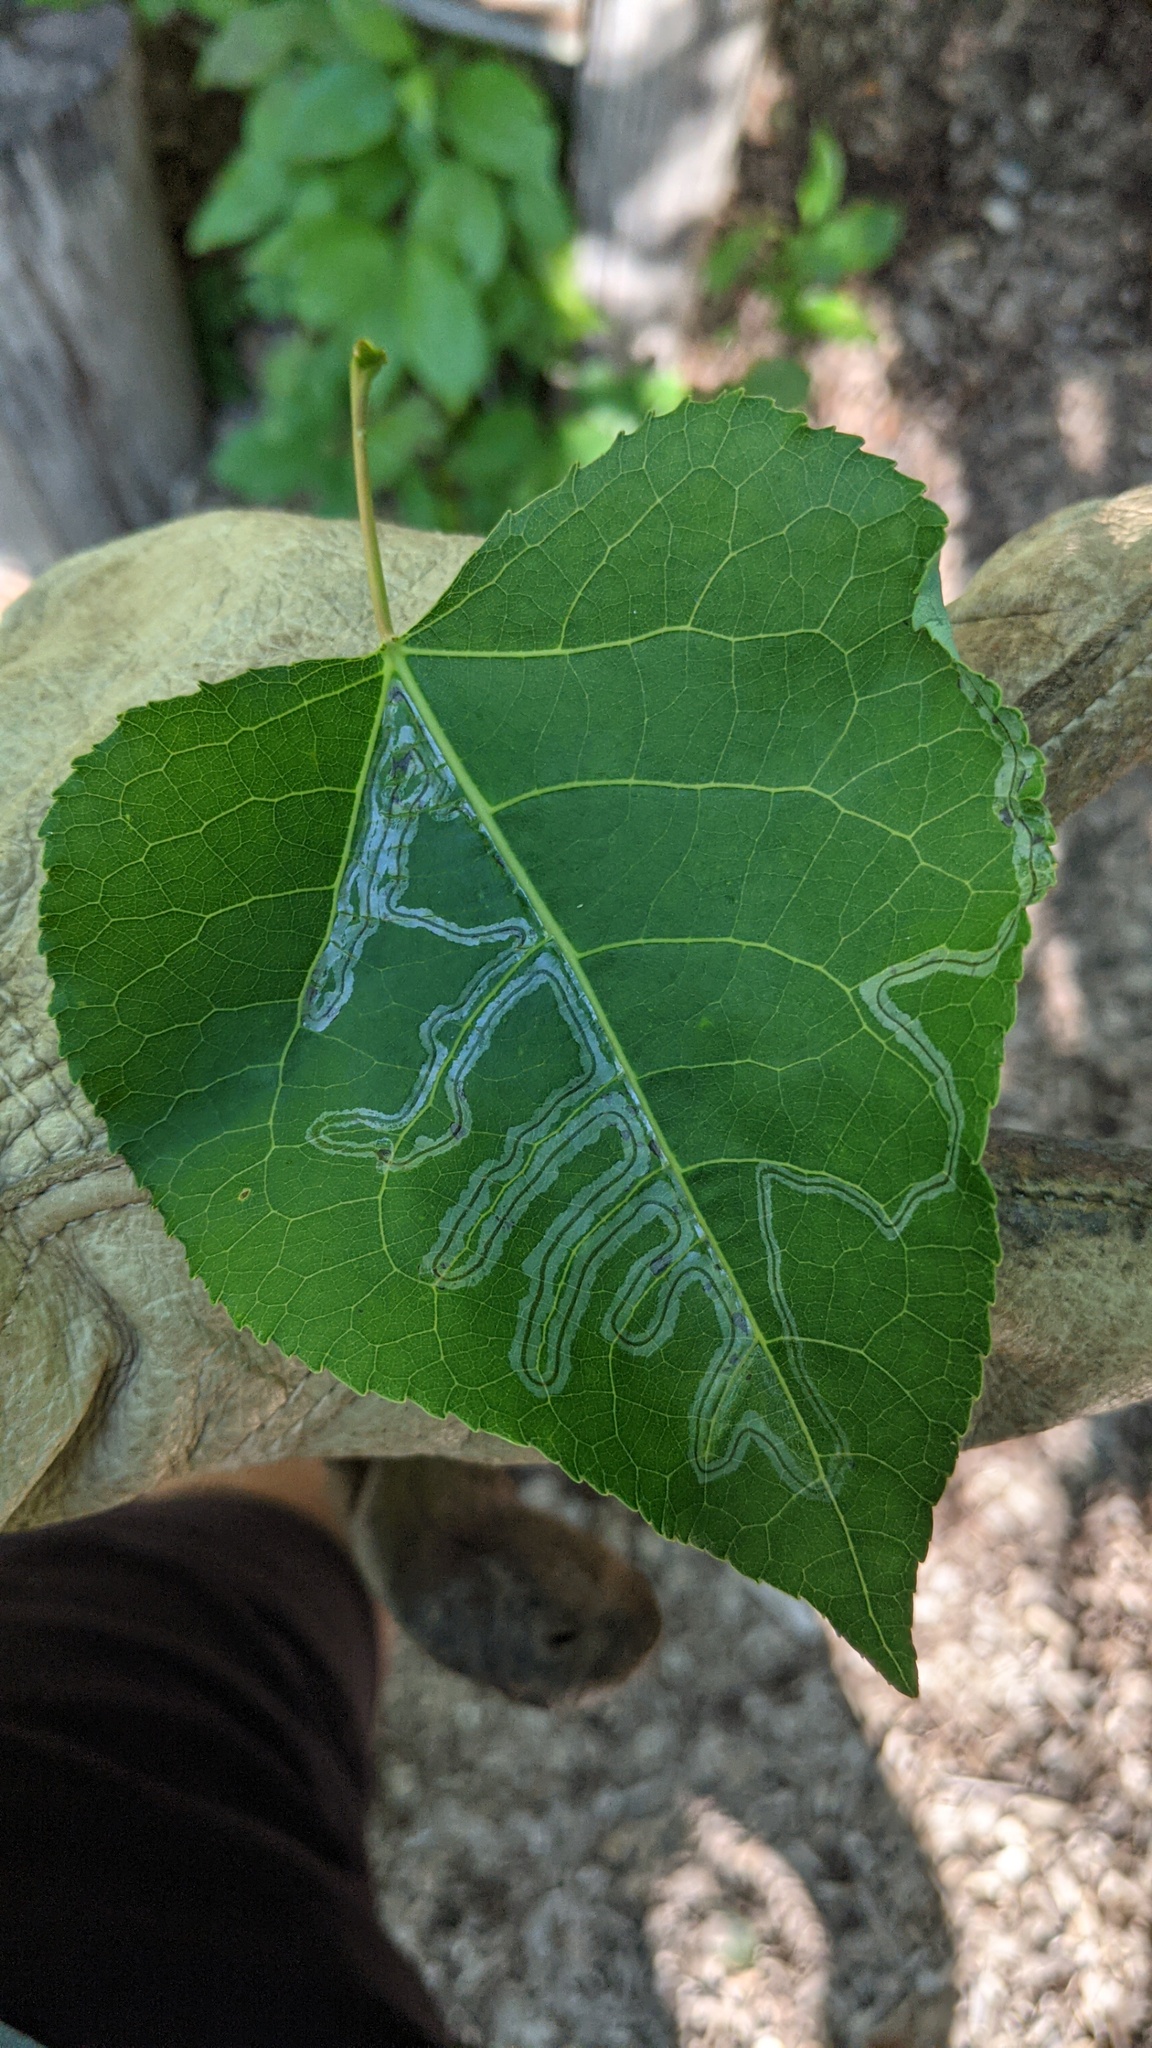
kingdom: Animalia
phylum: Arthropoda
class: Insecta
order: Lepidoptera
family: Gracillariidae
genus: Phyllocnistis
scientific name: Phyllocnistis populiella
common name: Aspen serpentine leafminer moth
